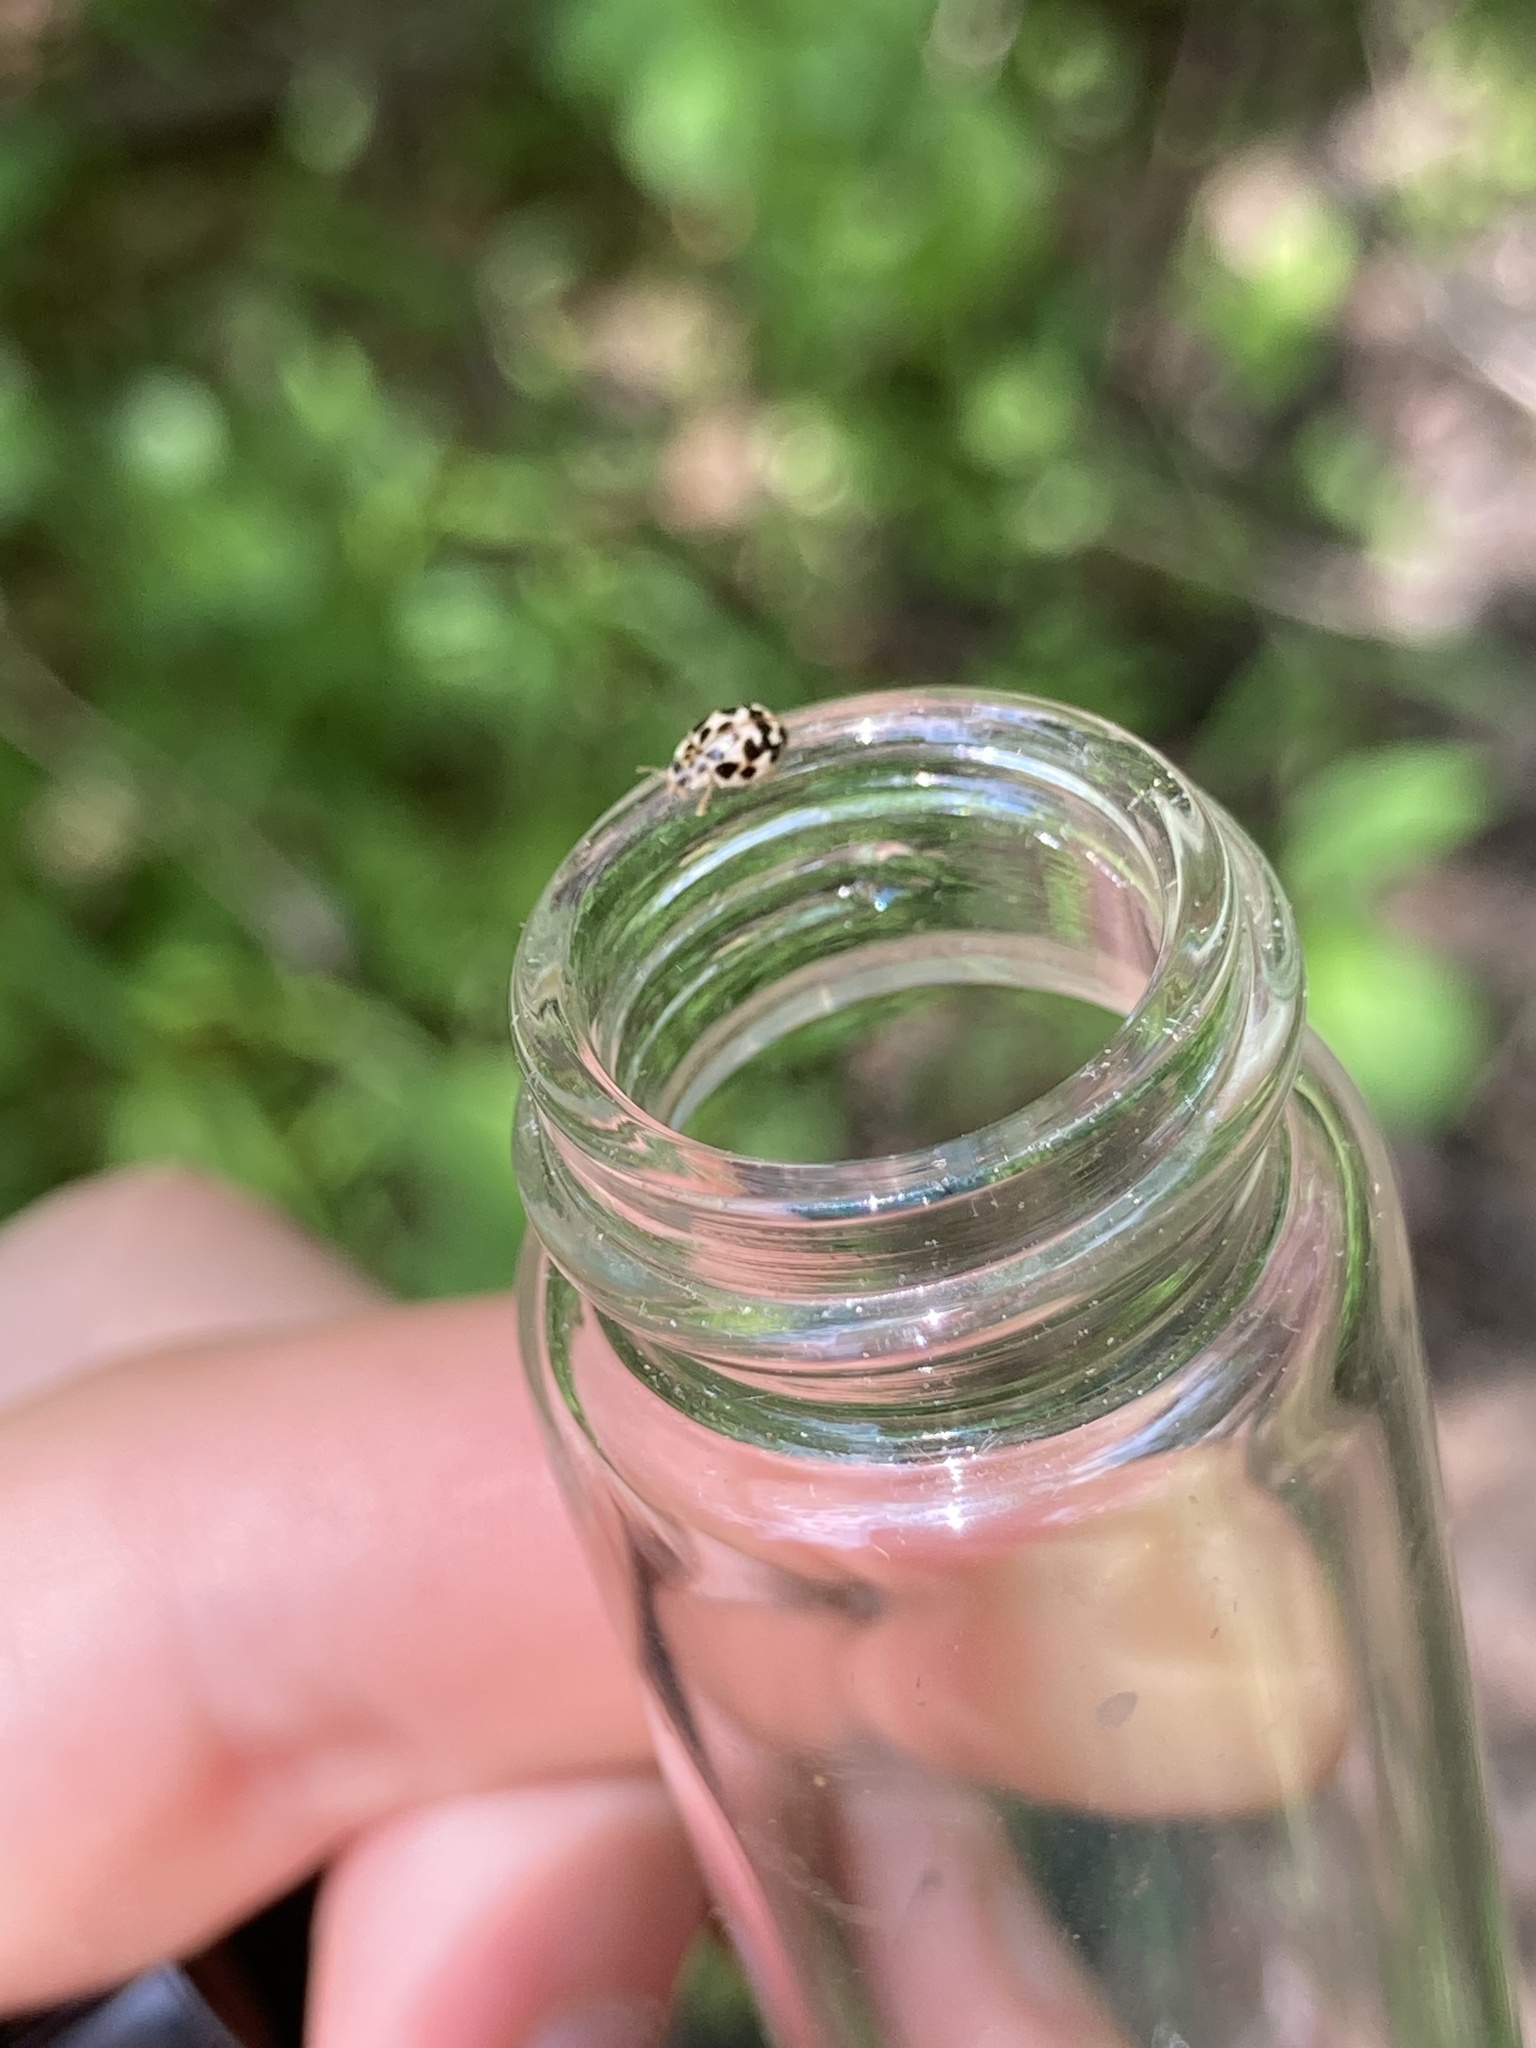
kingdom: Animalia
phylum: Arthropoda
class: Insecta
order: Coleoptera
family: Coccinellidae
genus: Psyllobora
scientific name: Psyllobora vigintimaculata
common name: Ladybird beetle
